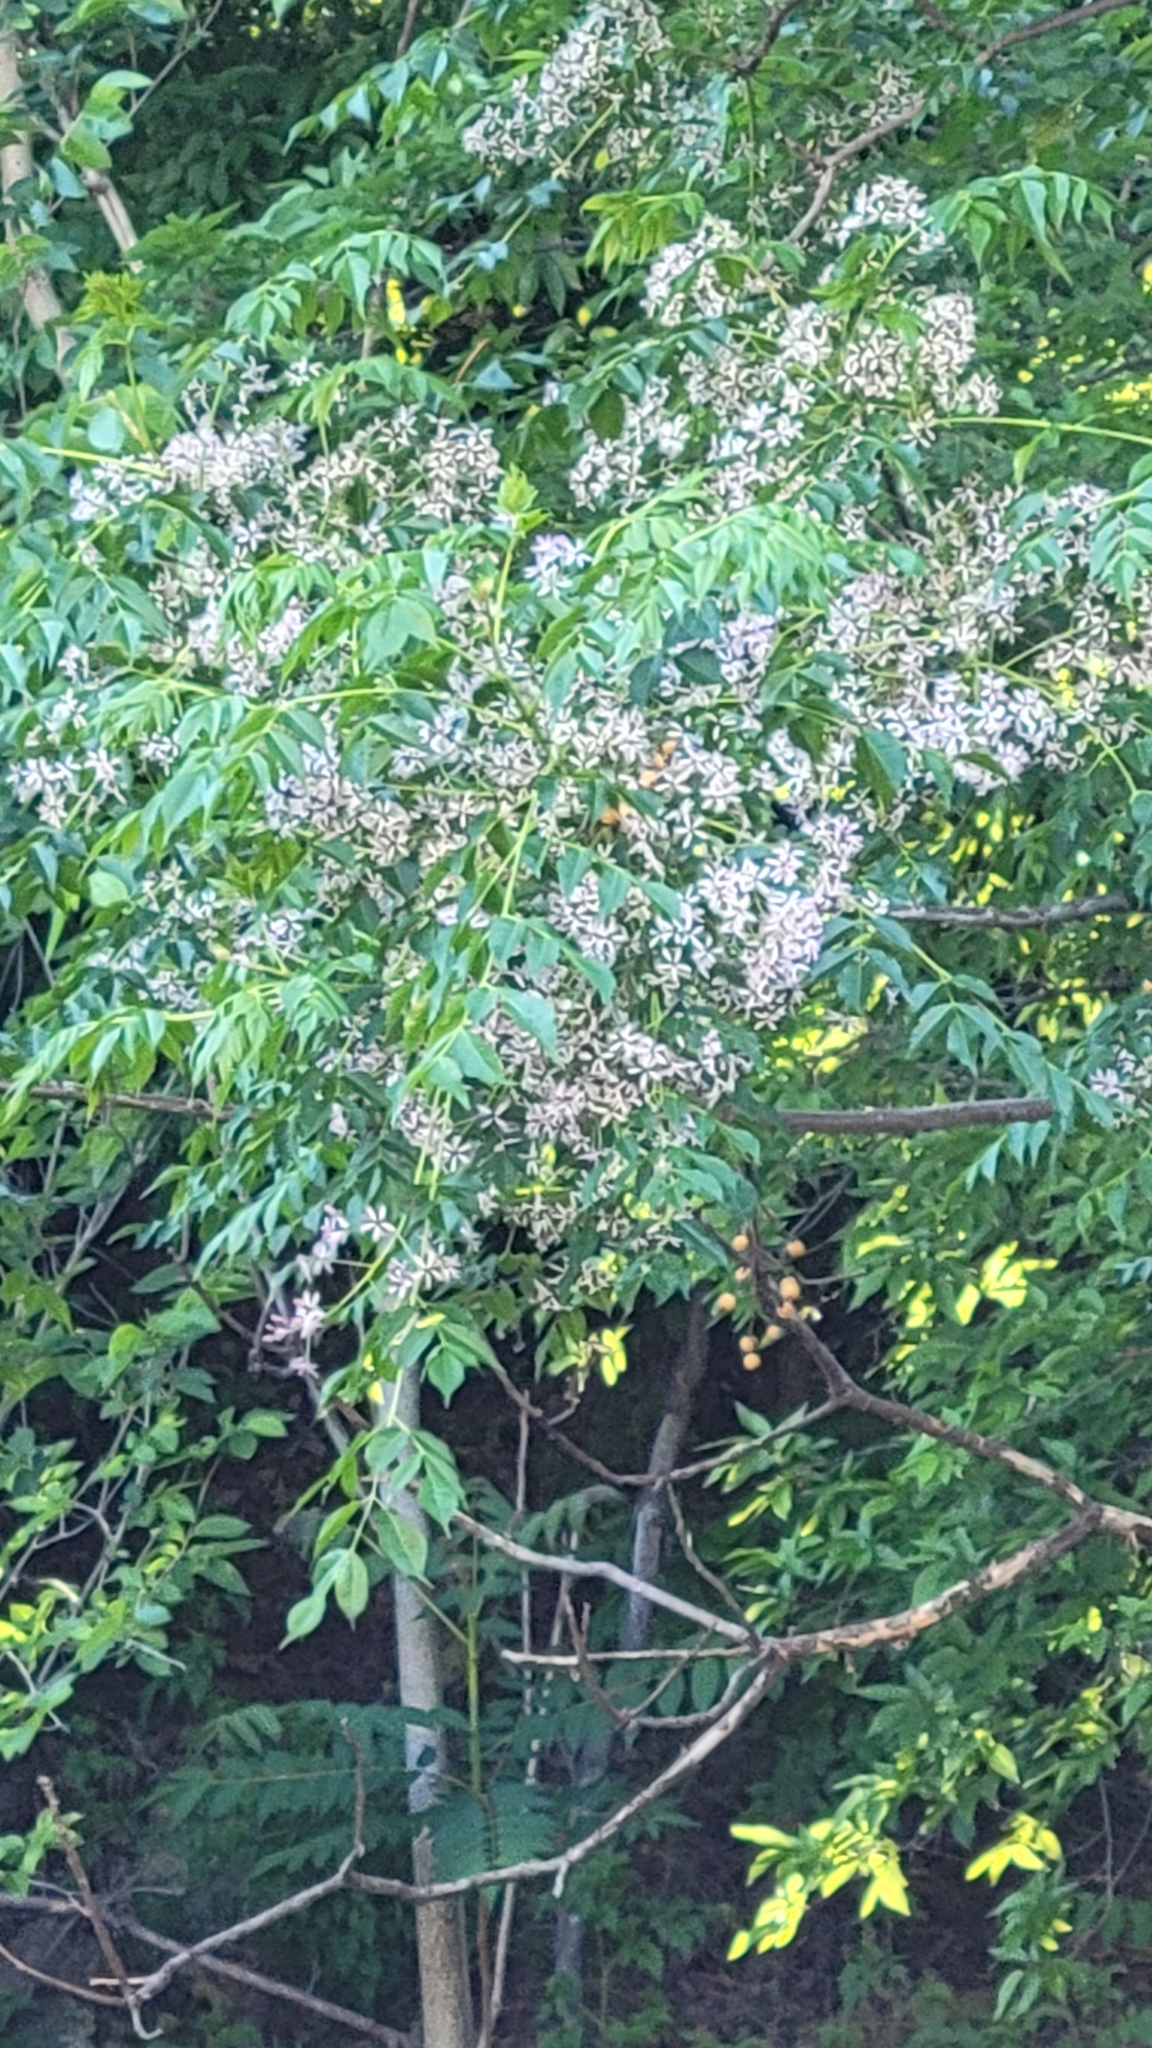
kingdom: Plantae
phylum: Tracheophyta
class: Magnoliopsida
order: Sapindales
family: Meliaceae
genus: Melia
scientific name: Melia azedarach
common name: Chinaberrytree
